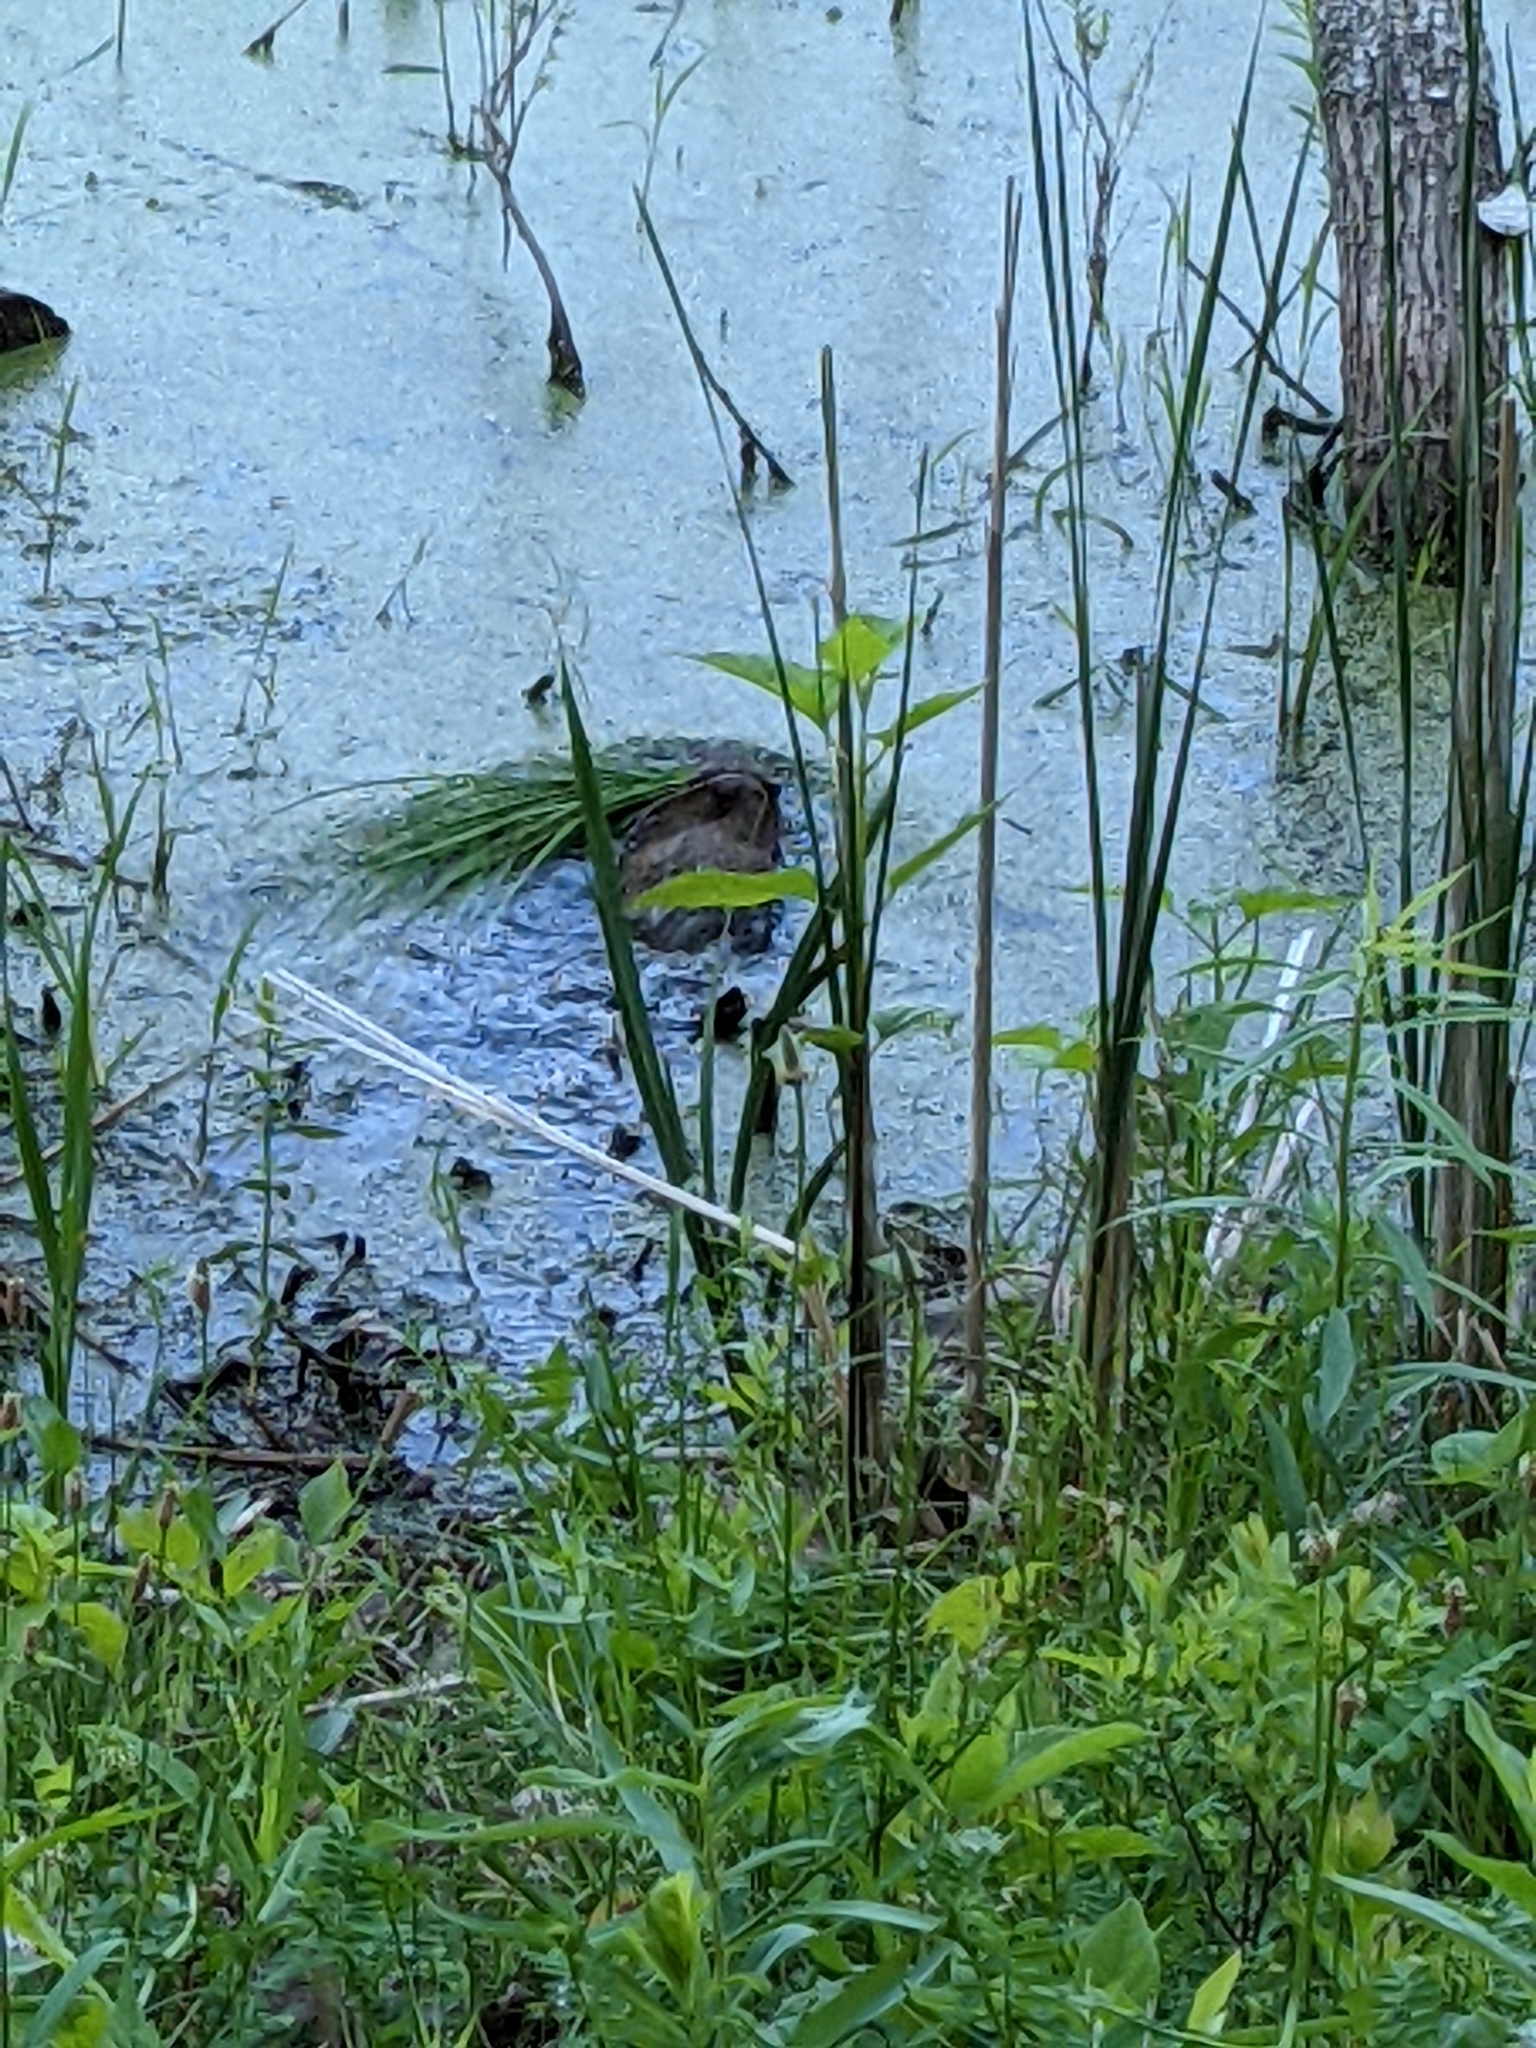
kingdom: Animalia
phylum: Chordata
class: Mammalia
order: Rodentia
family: Cricetidae
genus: Ondatra
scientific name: Ondatra zibethicus
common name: Muskrat
